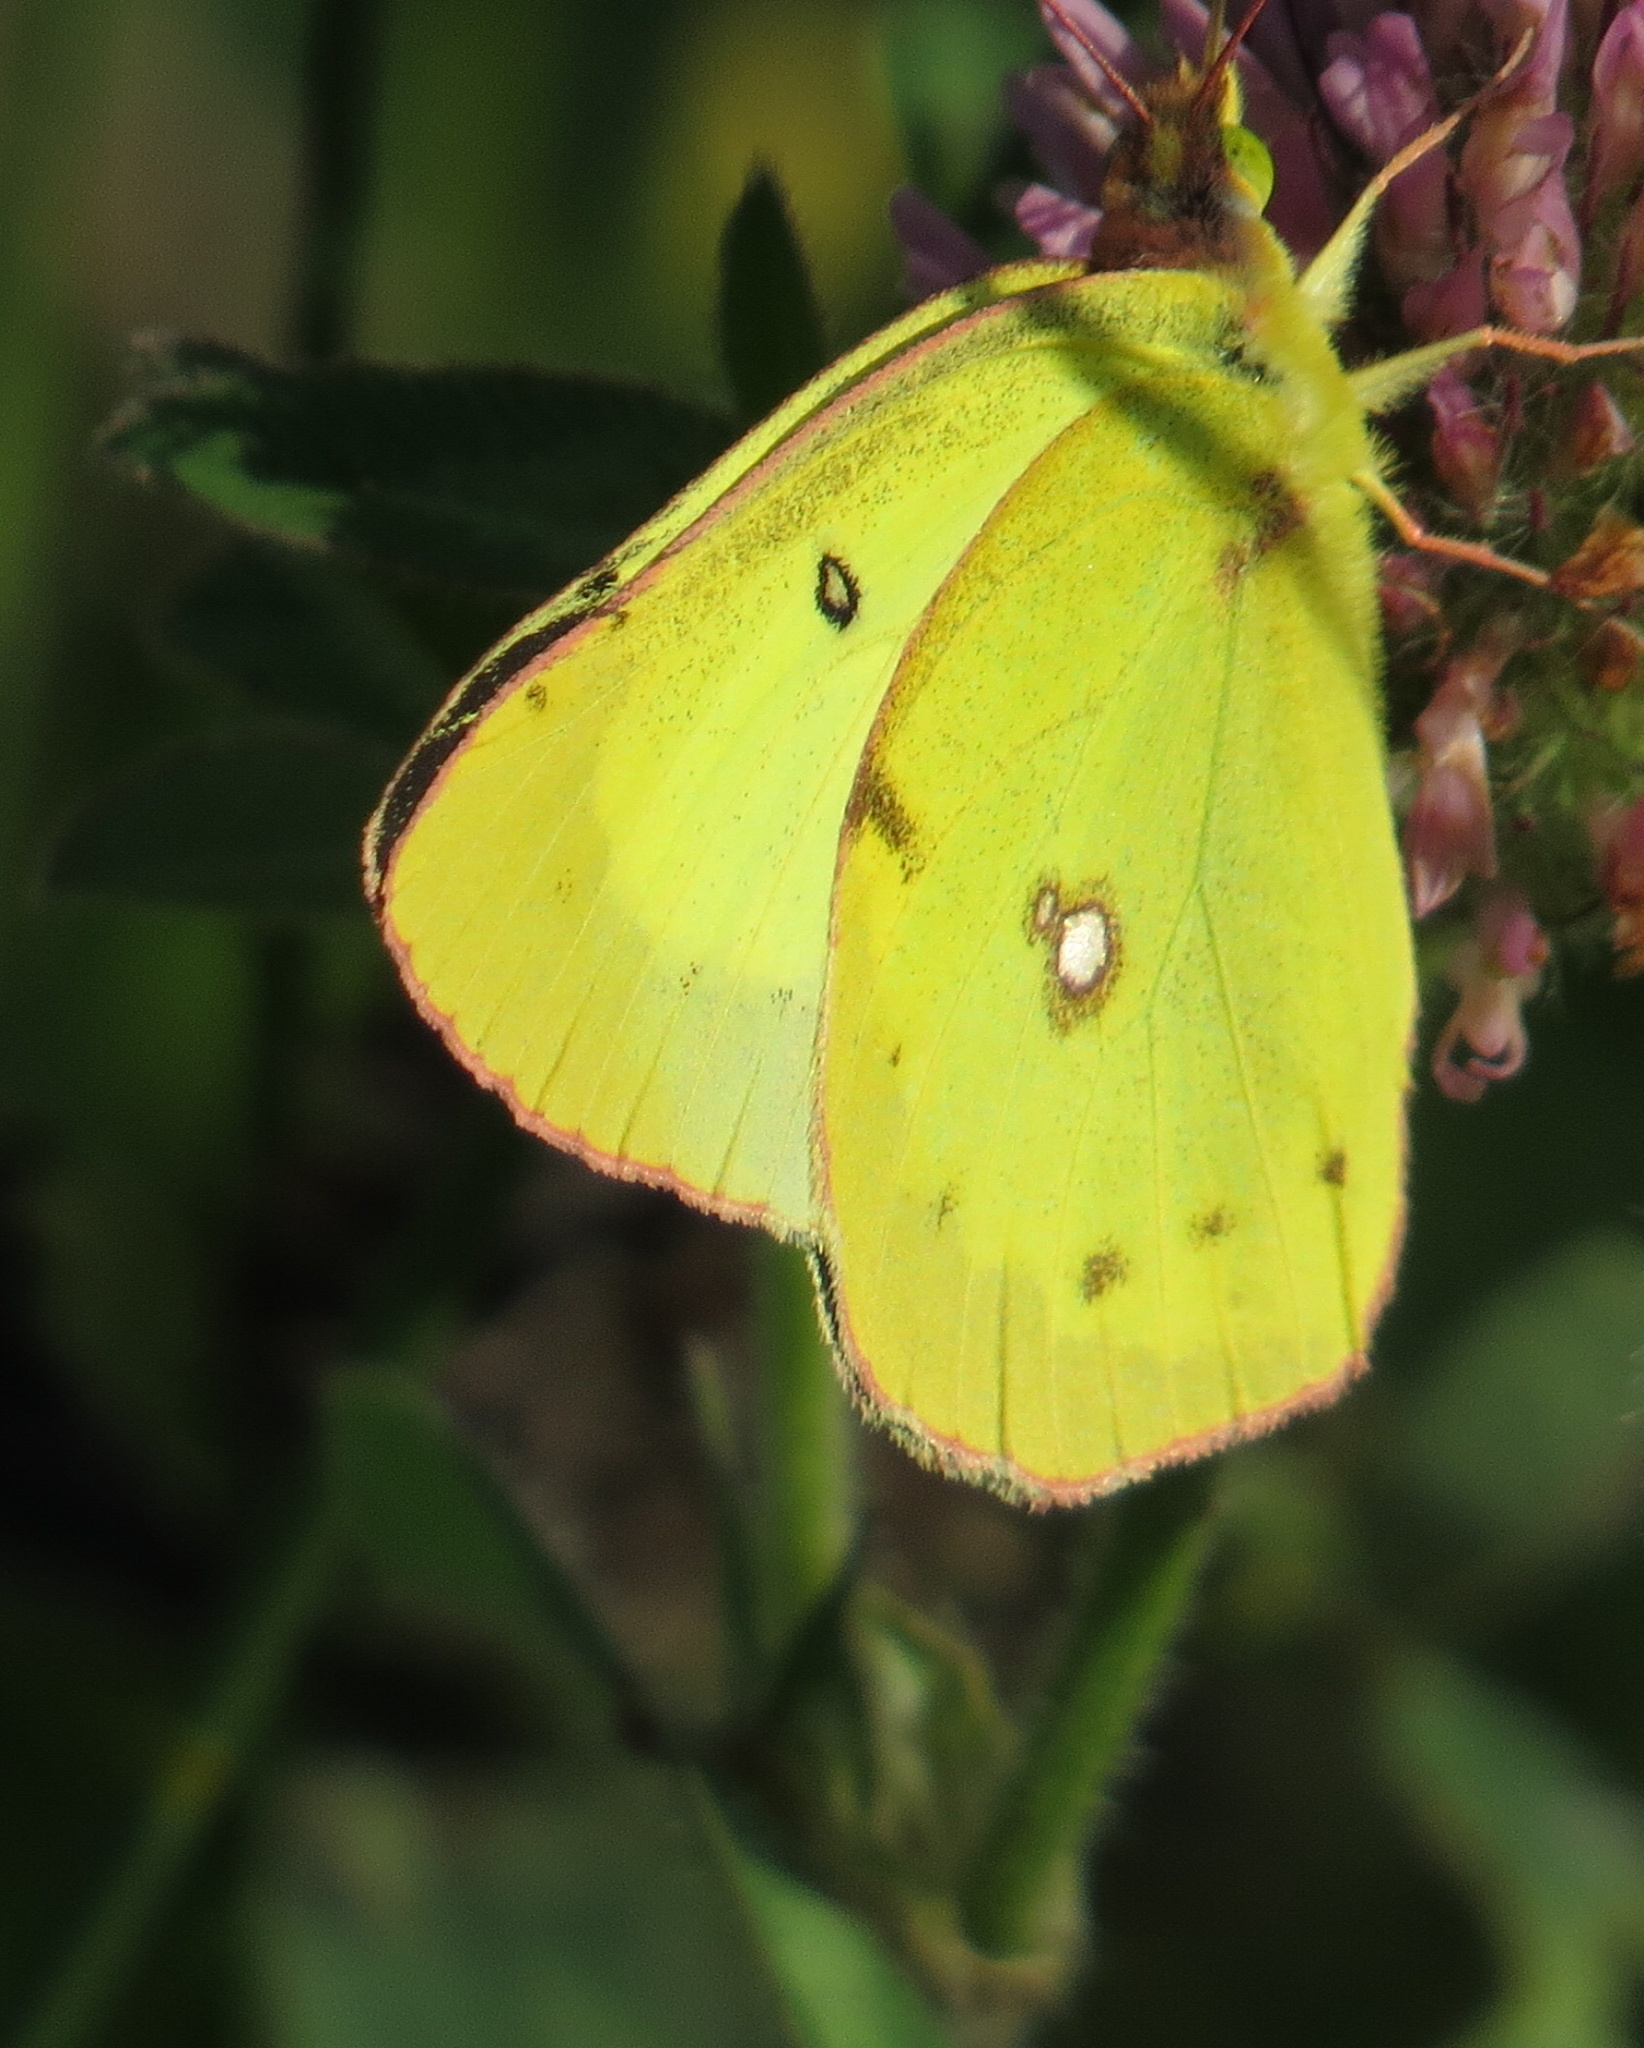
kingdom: Animalia
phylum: Arthropoda
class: Insecta
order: Lepidoptera
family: Pieridae
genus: Colias
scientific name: Colias philodice
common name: Clouded sulphur
